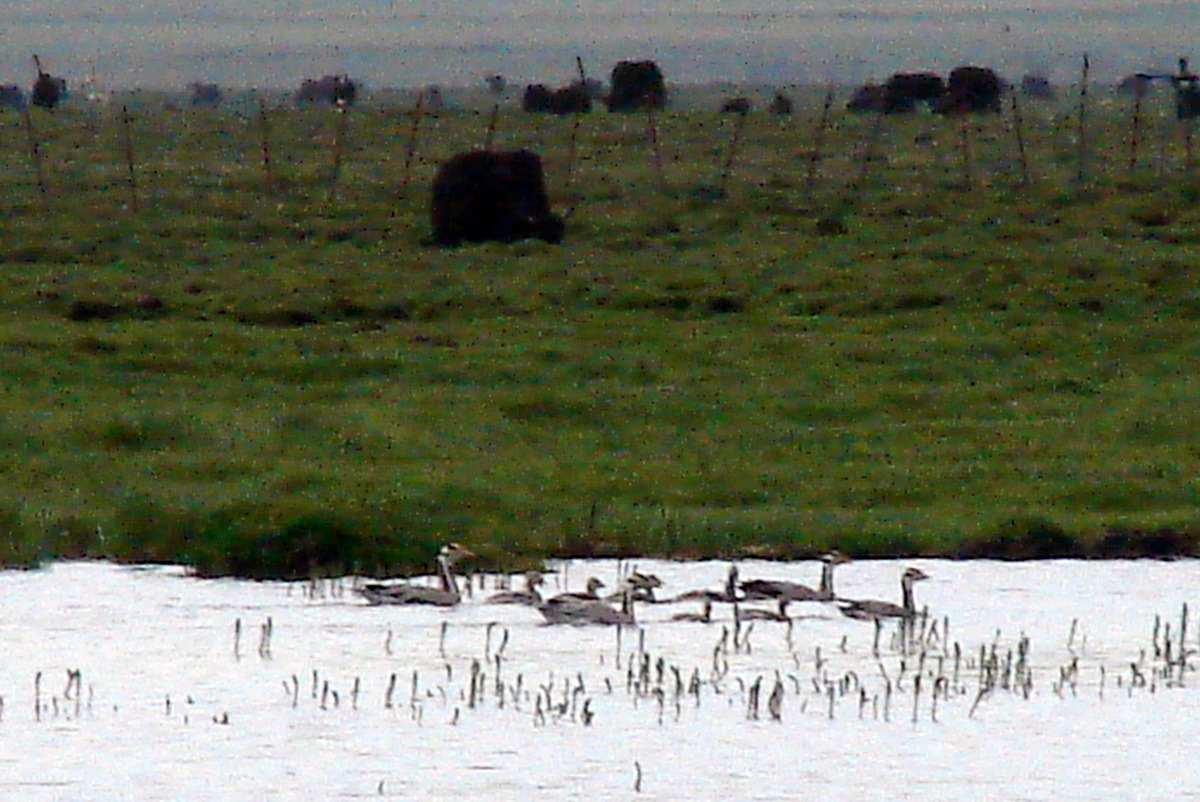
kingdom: Animalia
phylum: Chordata
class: Aves
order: Anseriformes
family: Anatidae
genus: Anser
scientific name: Anser indicus
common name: Bar-headed goose
